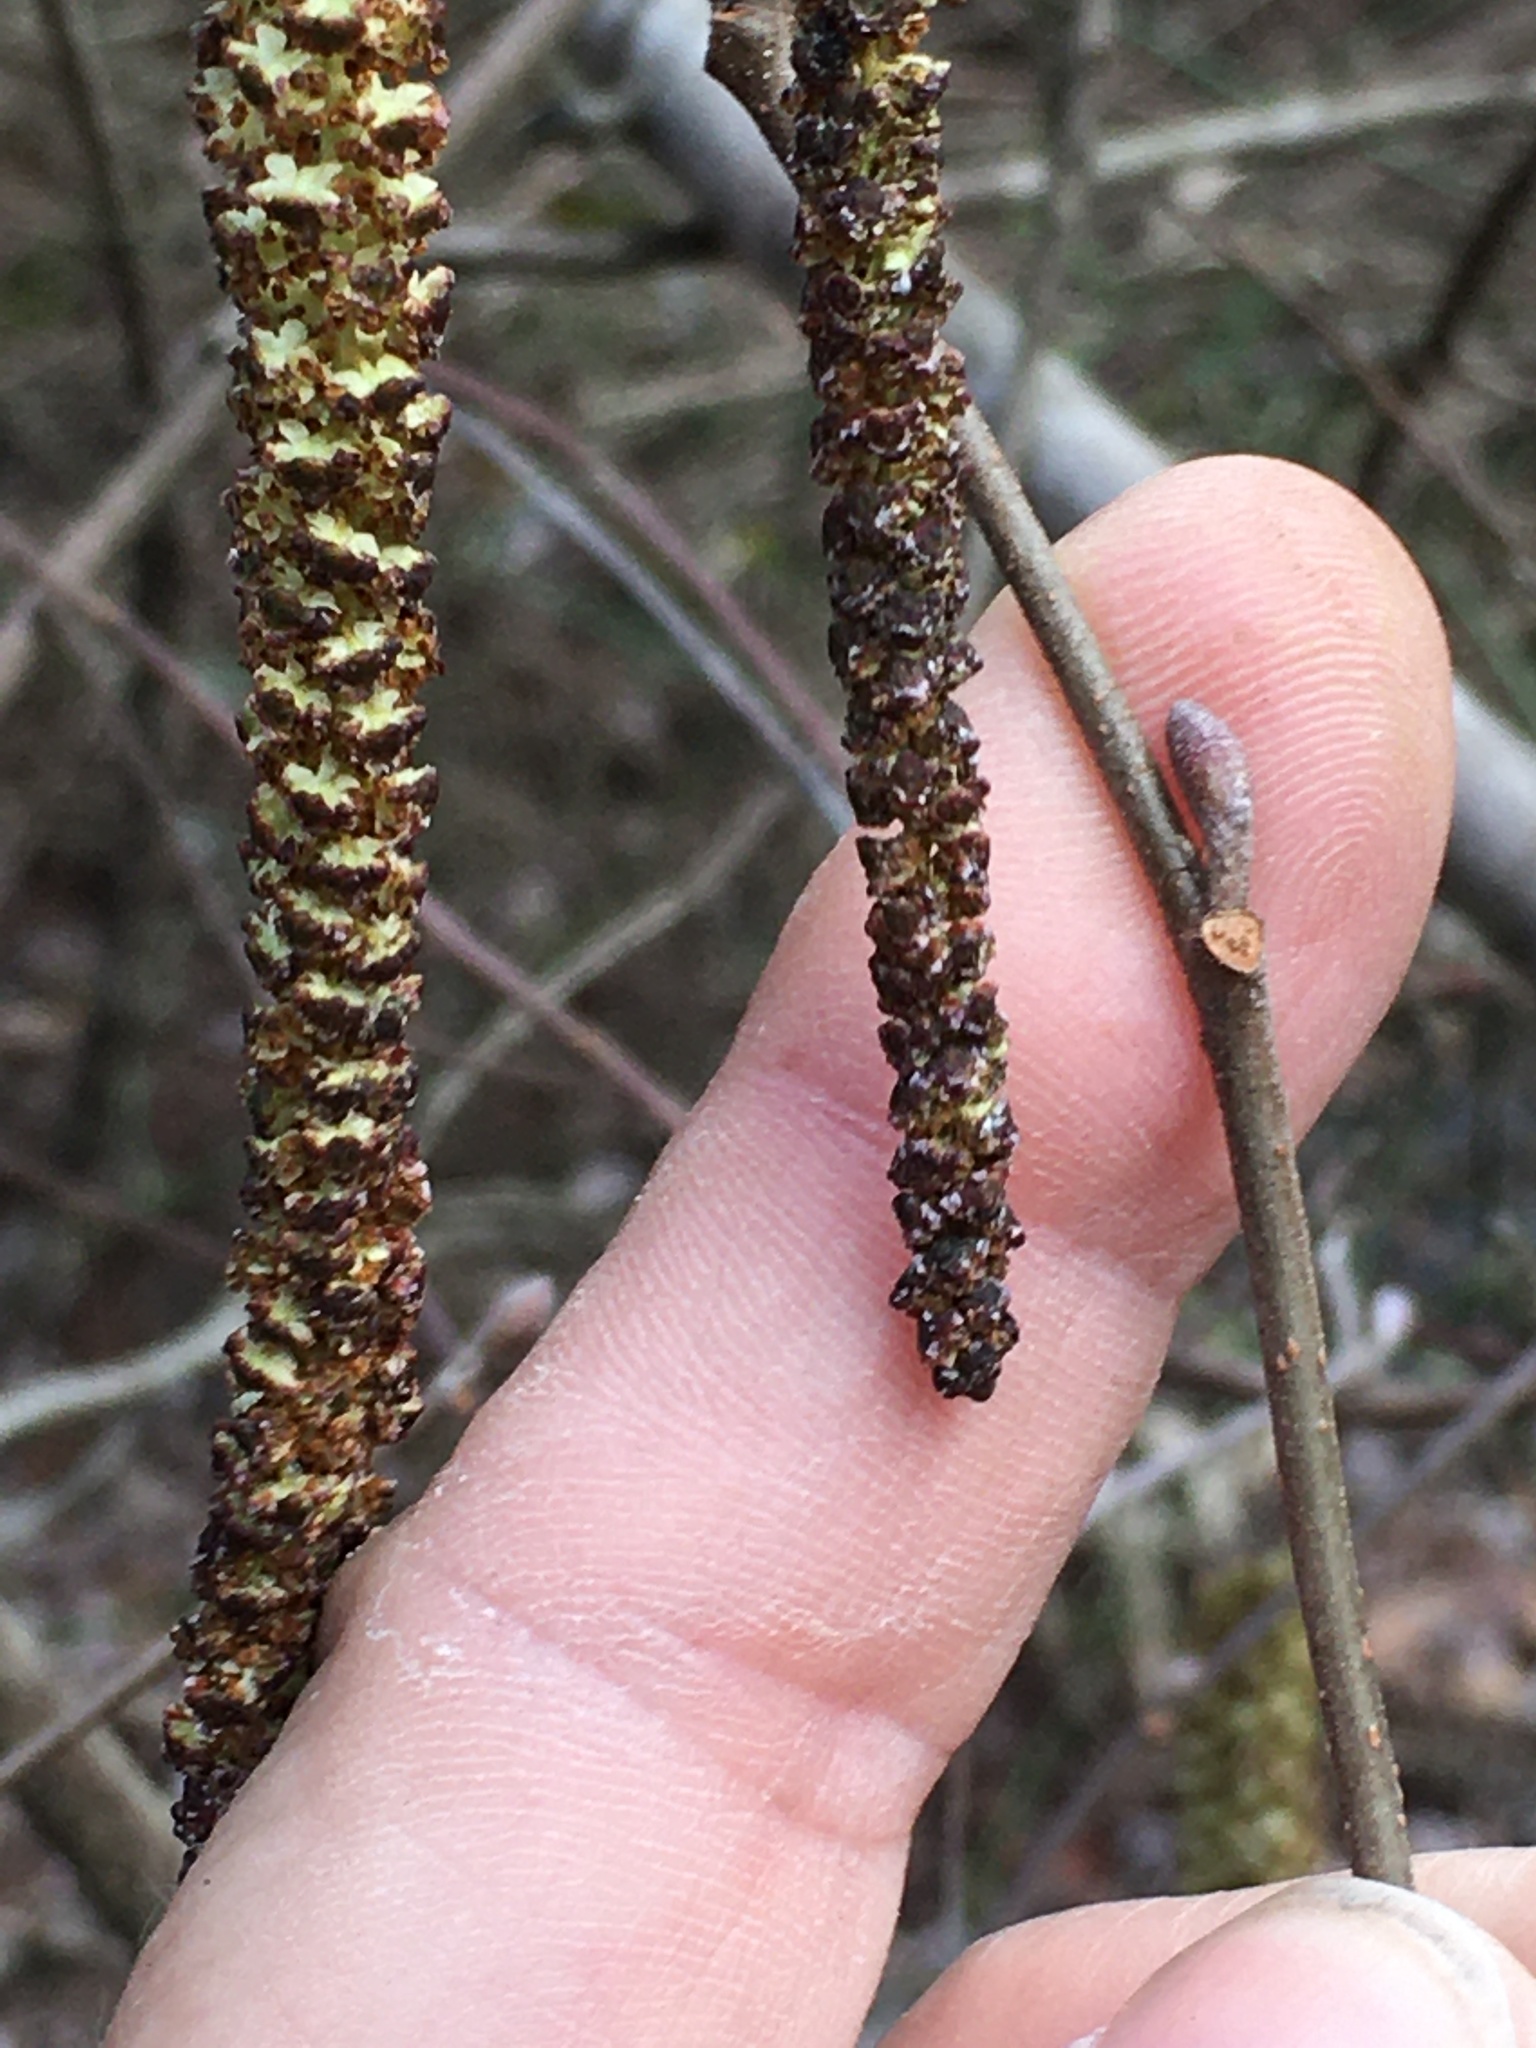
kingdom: Plantae
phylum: Tracheophyta
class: Magnoliopsida
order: Fagales
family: Betulaceae
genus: Alnus
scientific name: Alnus serrulata
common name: Hazel alder
